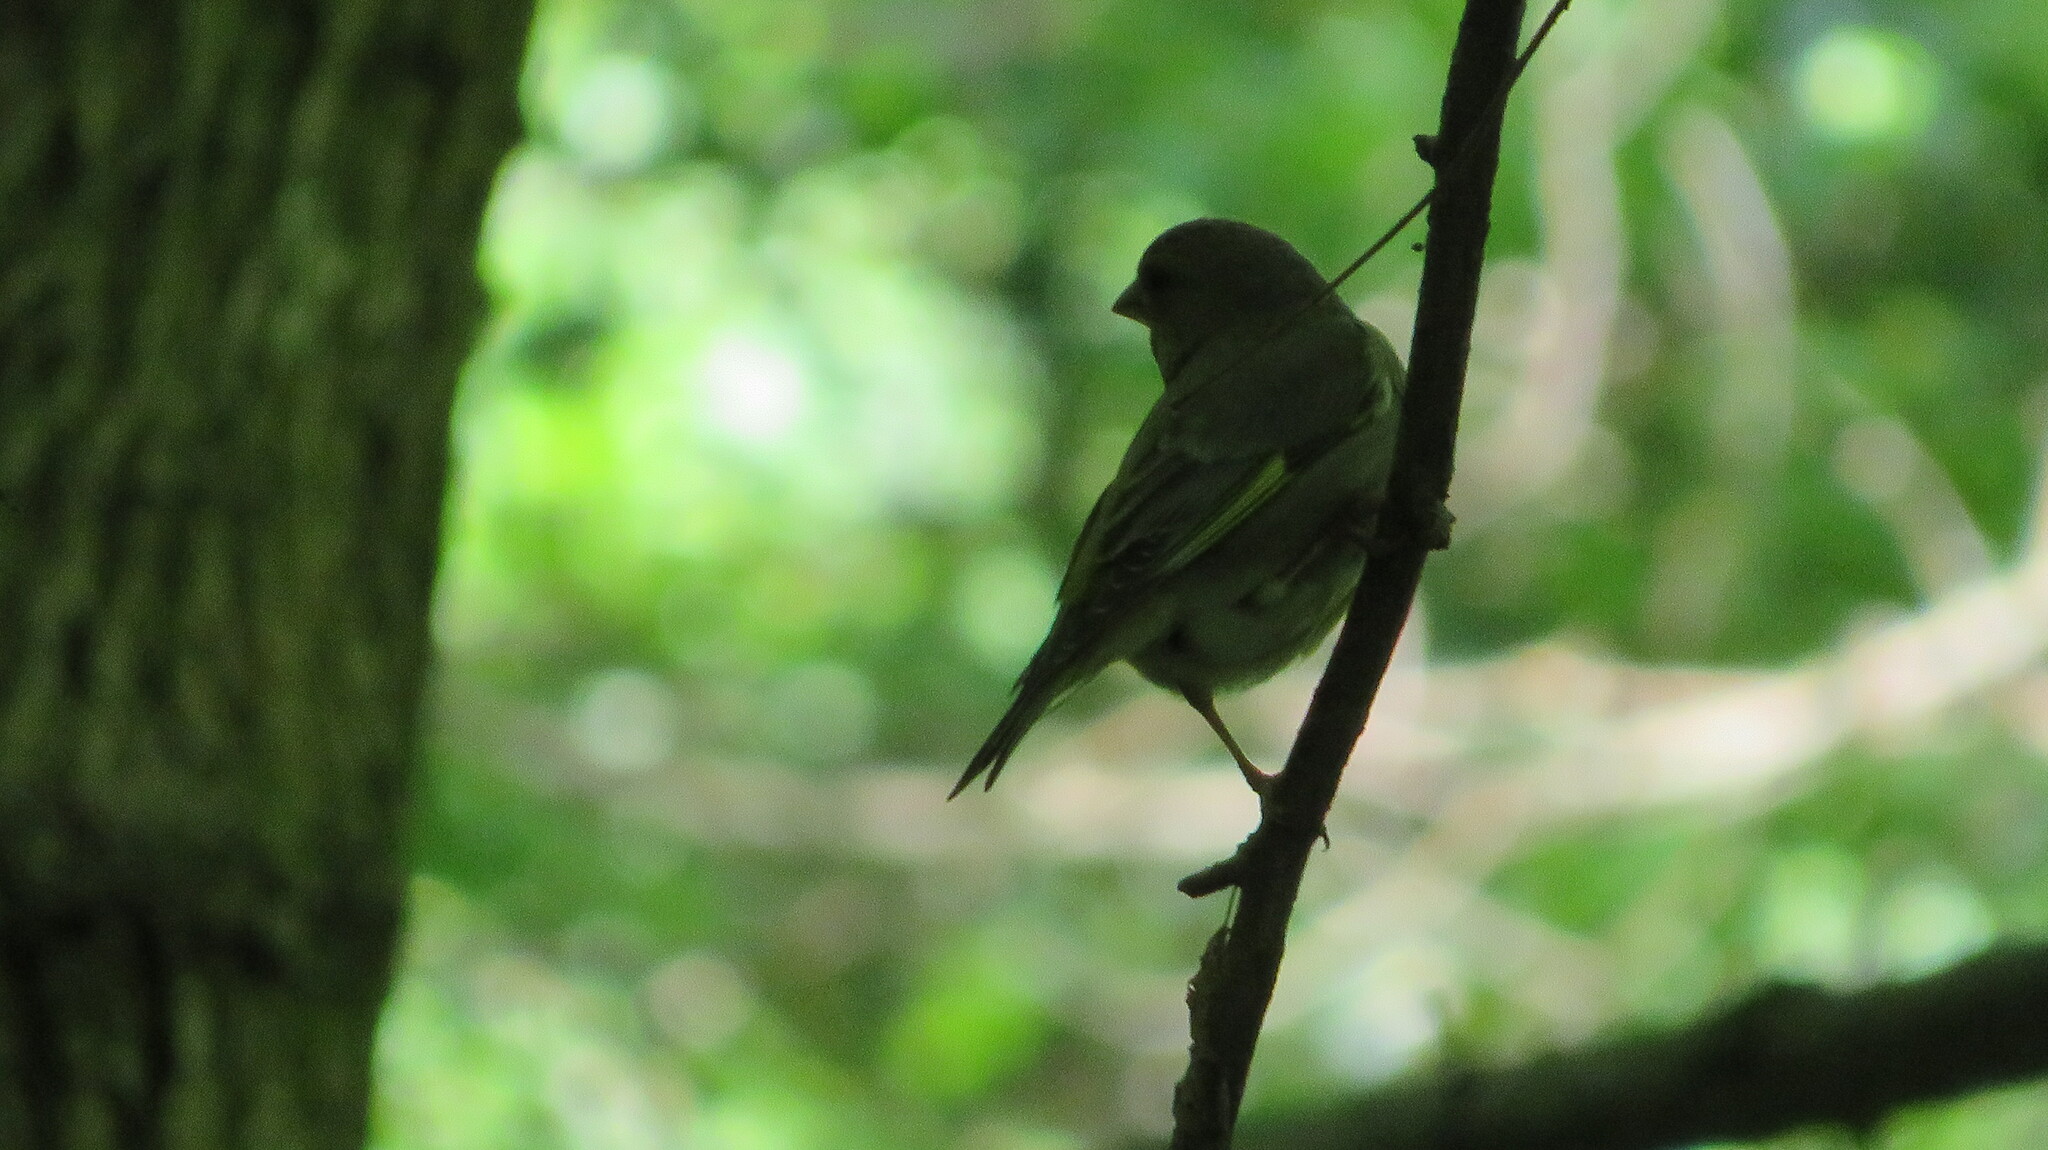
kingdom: Plantae
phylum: Tracheophyta
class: Liliopsida
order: Poales
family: Poaceae
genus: Chloris
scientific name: Chloris chloris
